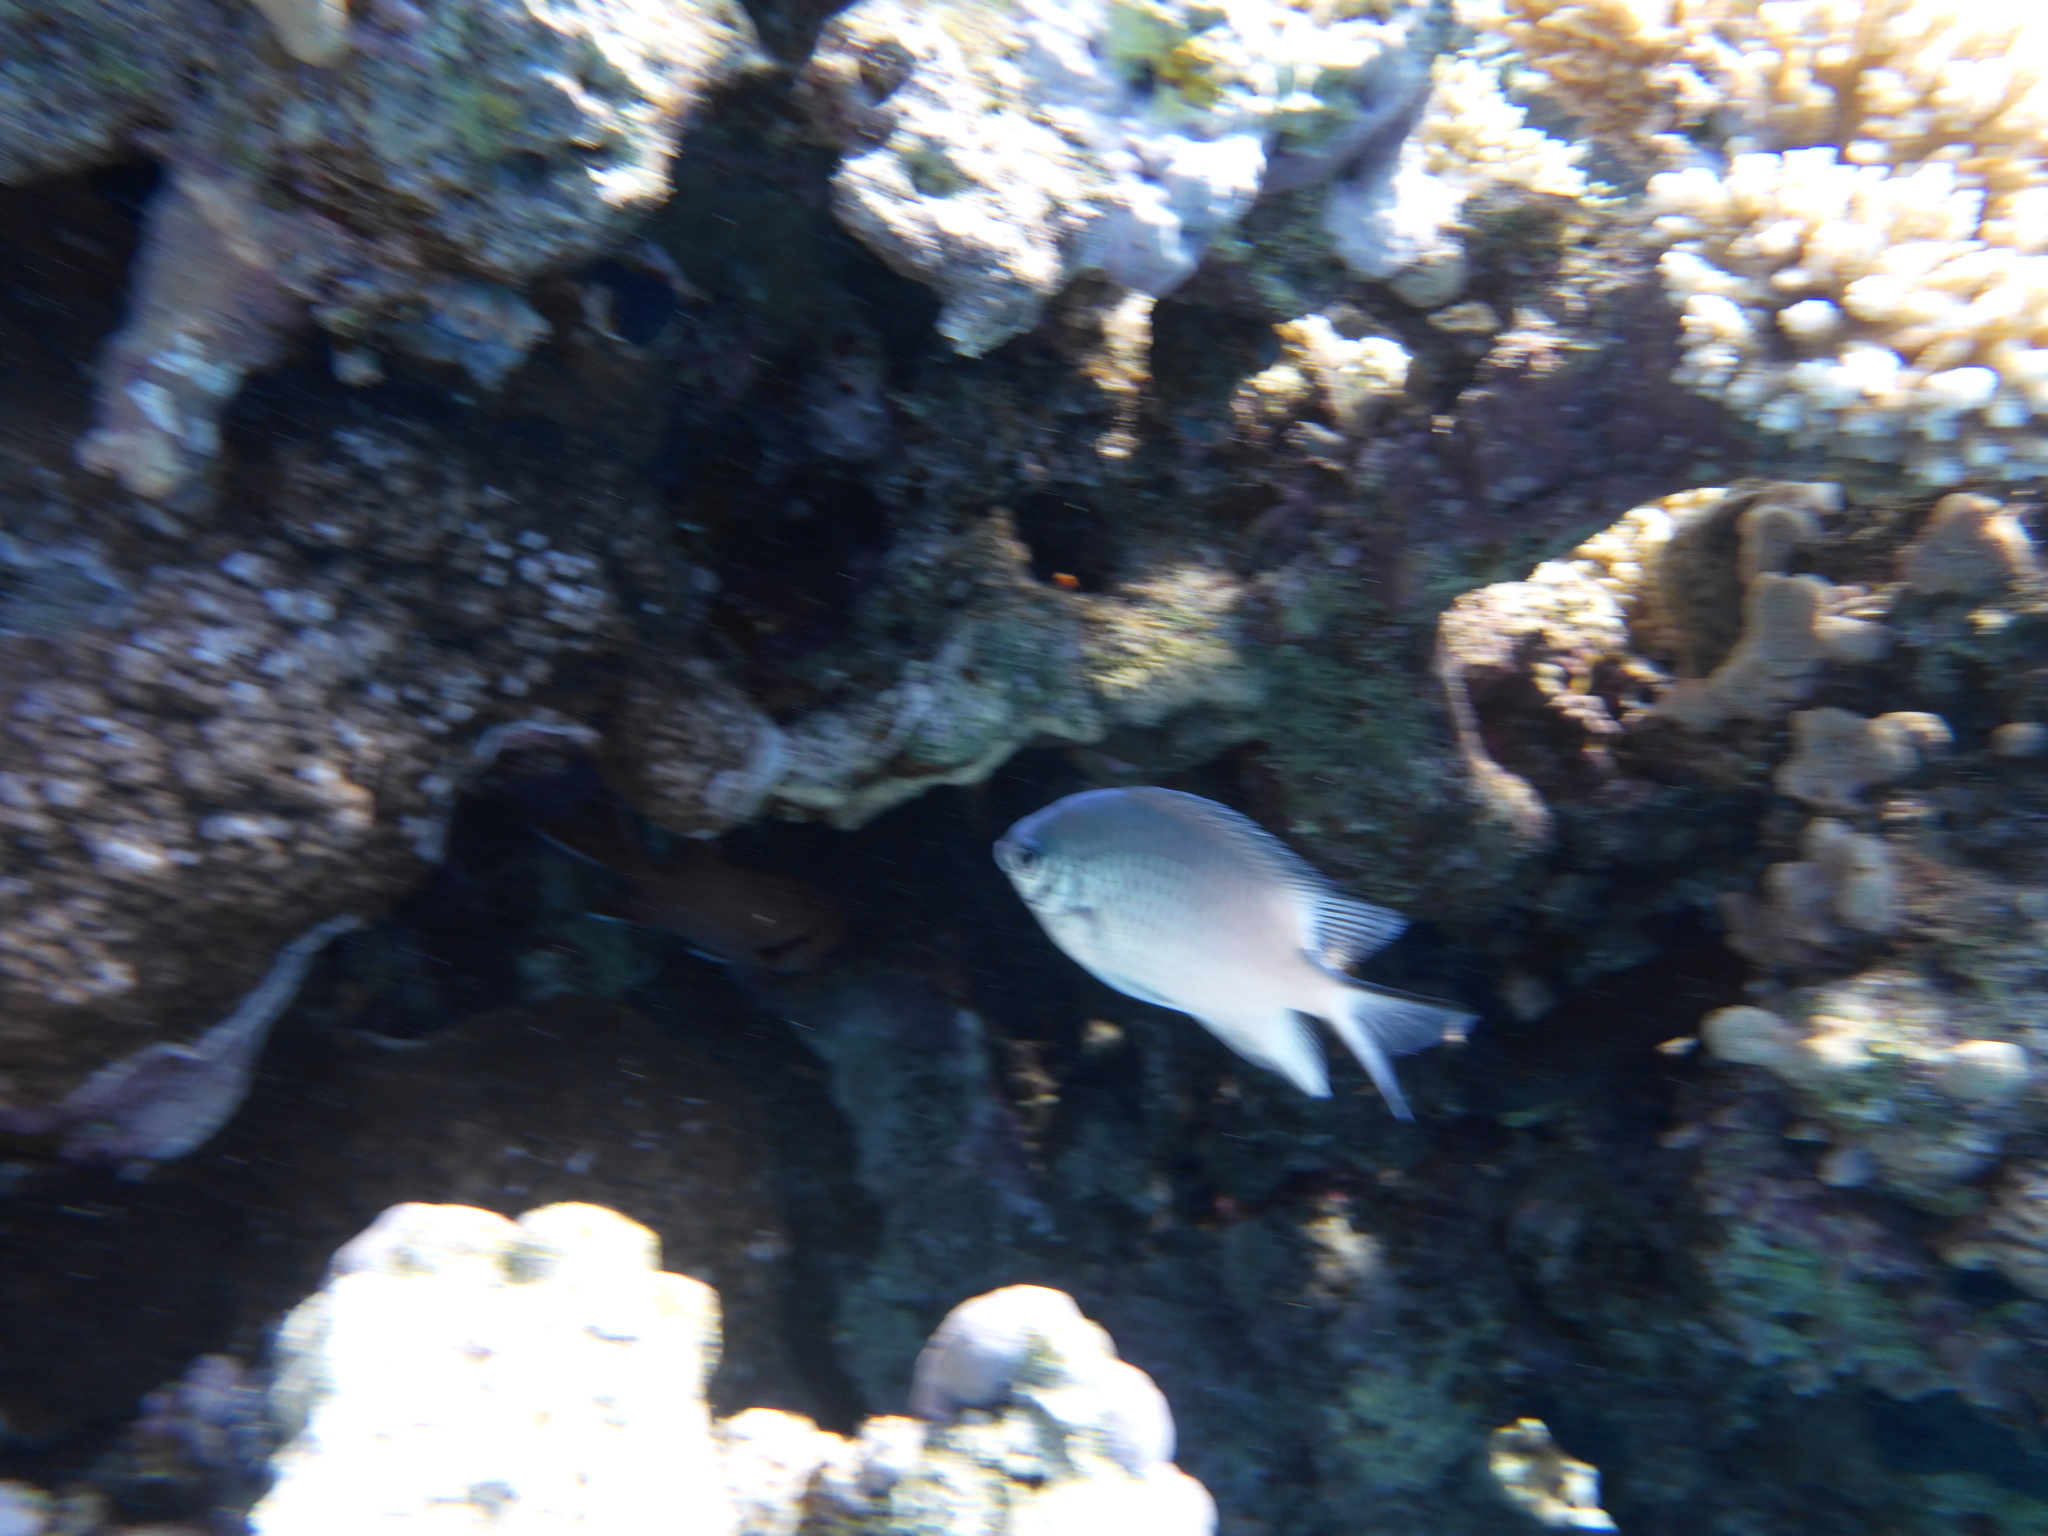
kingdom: Animalia
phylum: Chordata
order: Perciformes
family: Pomacentridae
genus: Amblyglyphidodon
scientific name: Amblyglyphidodon indicus
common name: Maldives damselfish
